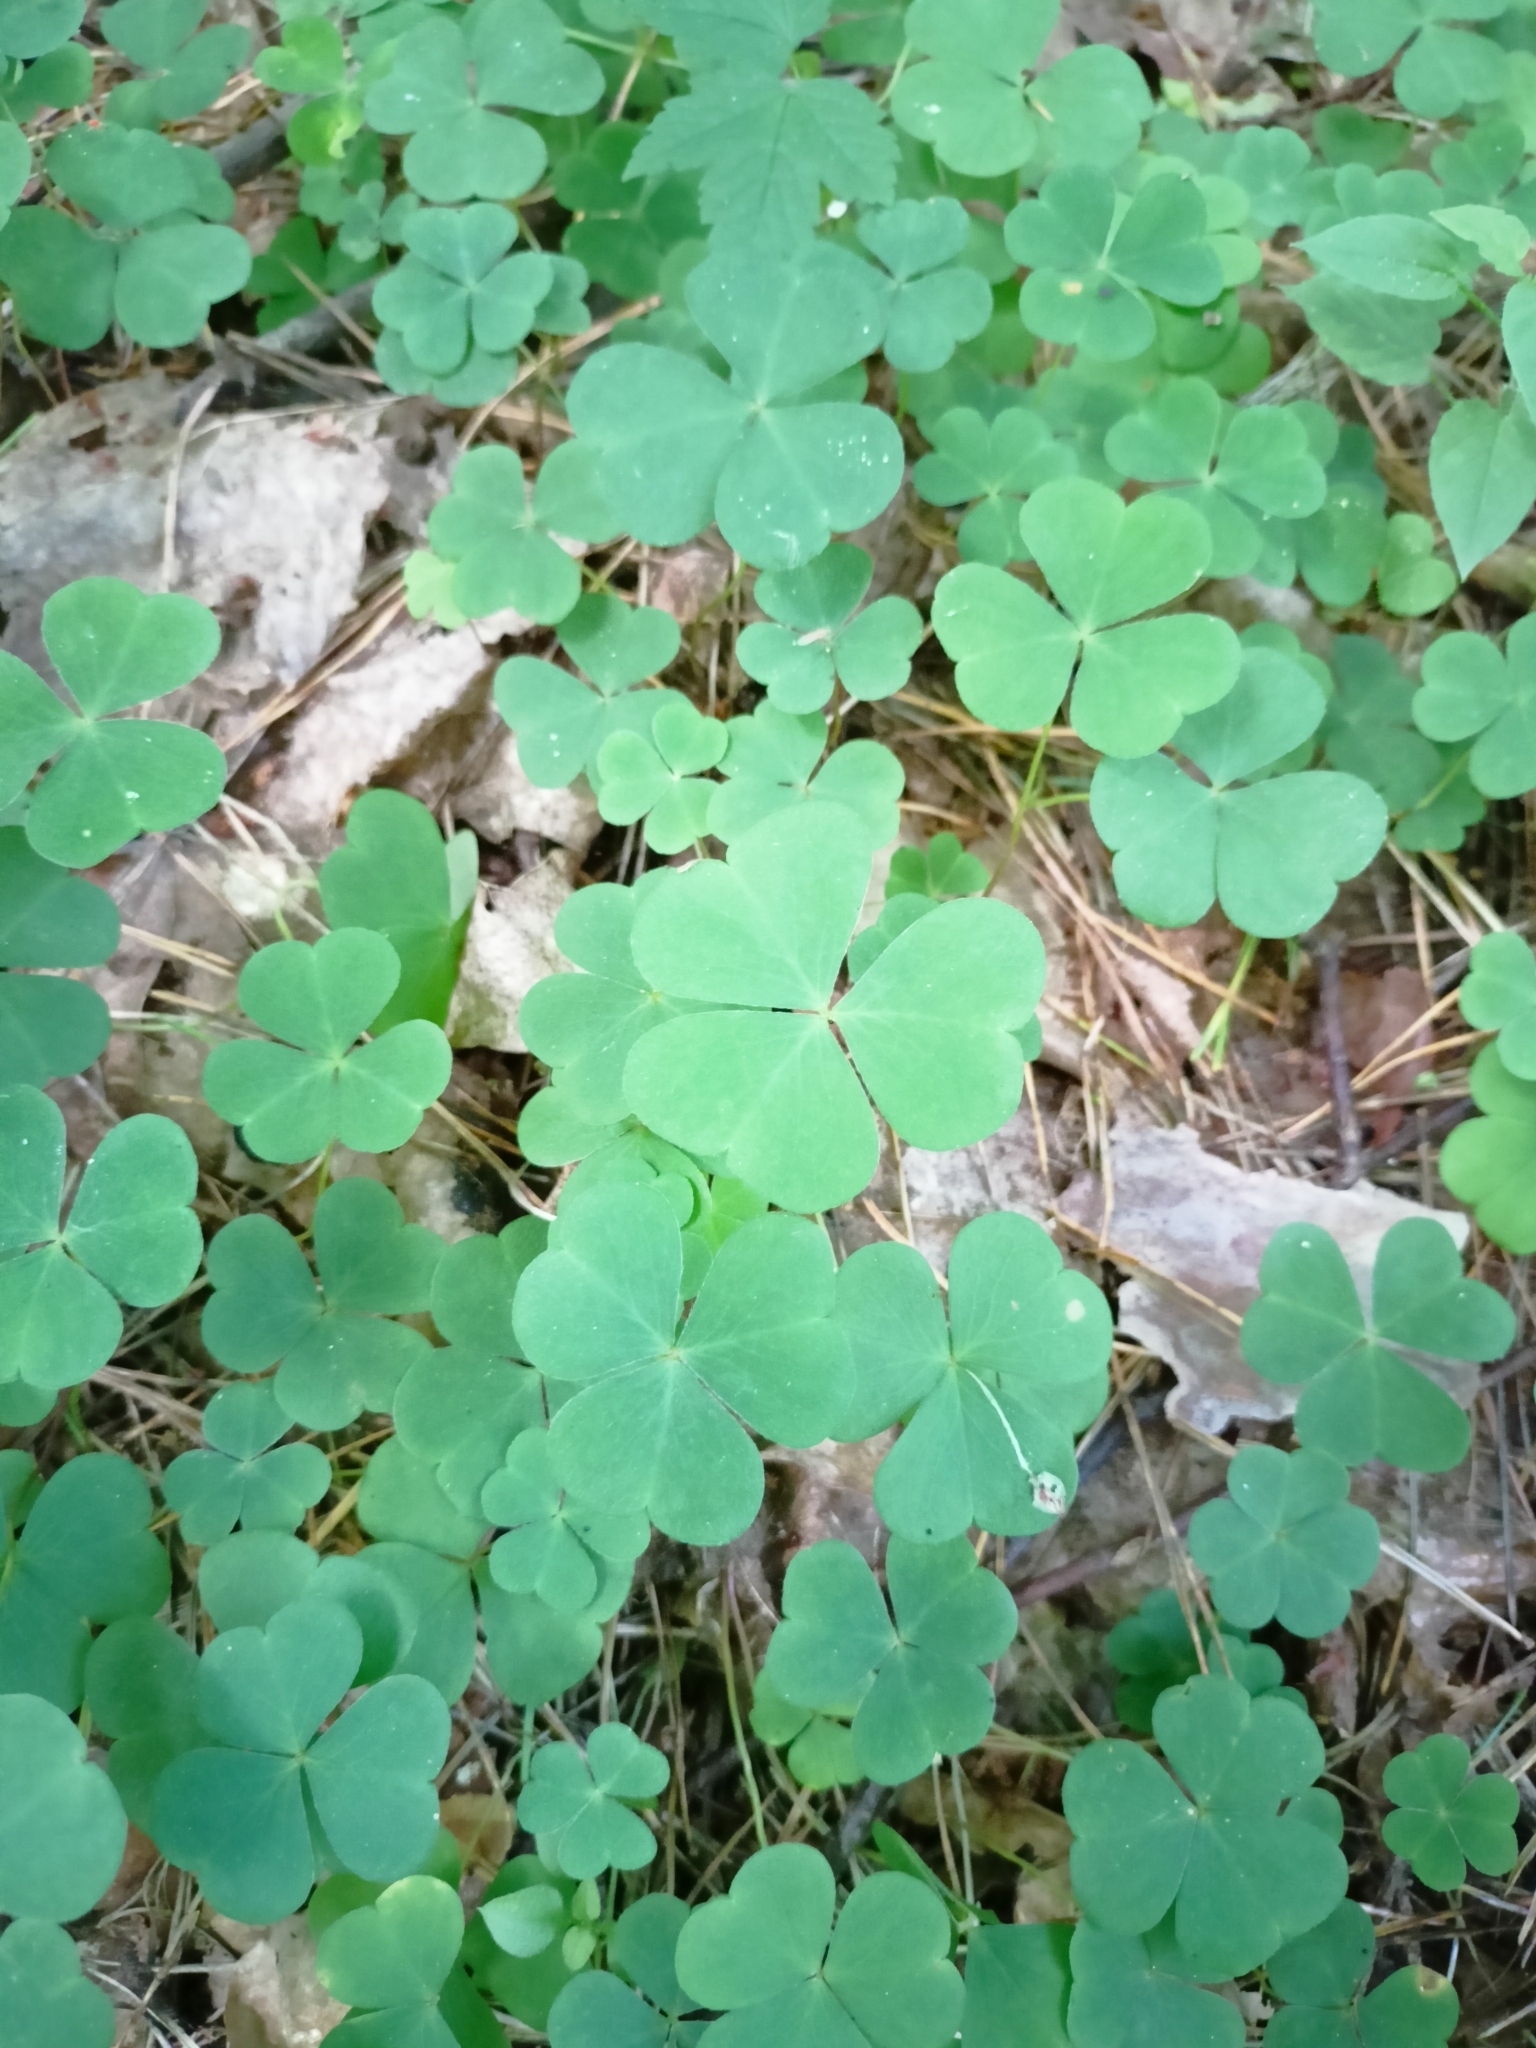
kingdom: Plantae
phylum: Tracheophyta
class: Magnoliopsida
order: Oxalidales
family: Oxalidaceae
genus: Oxalis
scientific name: Oxalis acetosella
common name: Wood-sorrel
